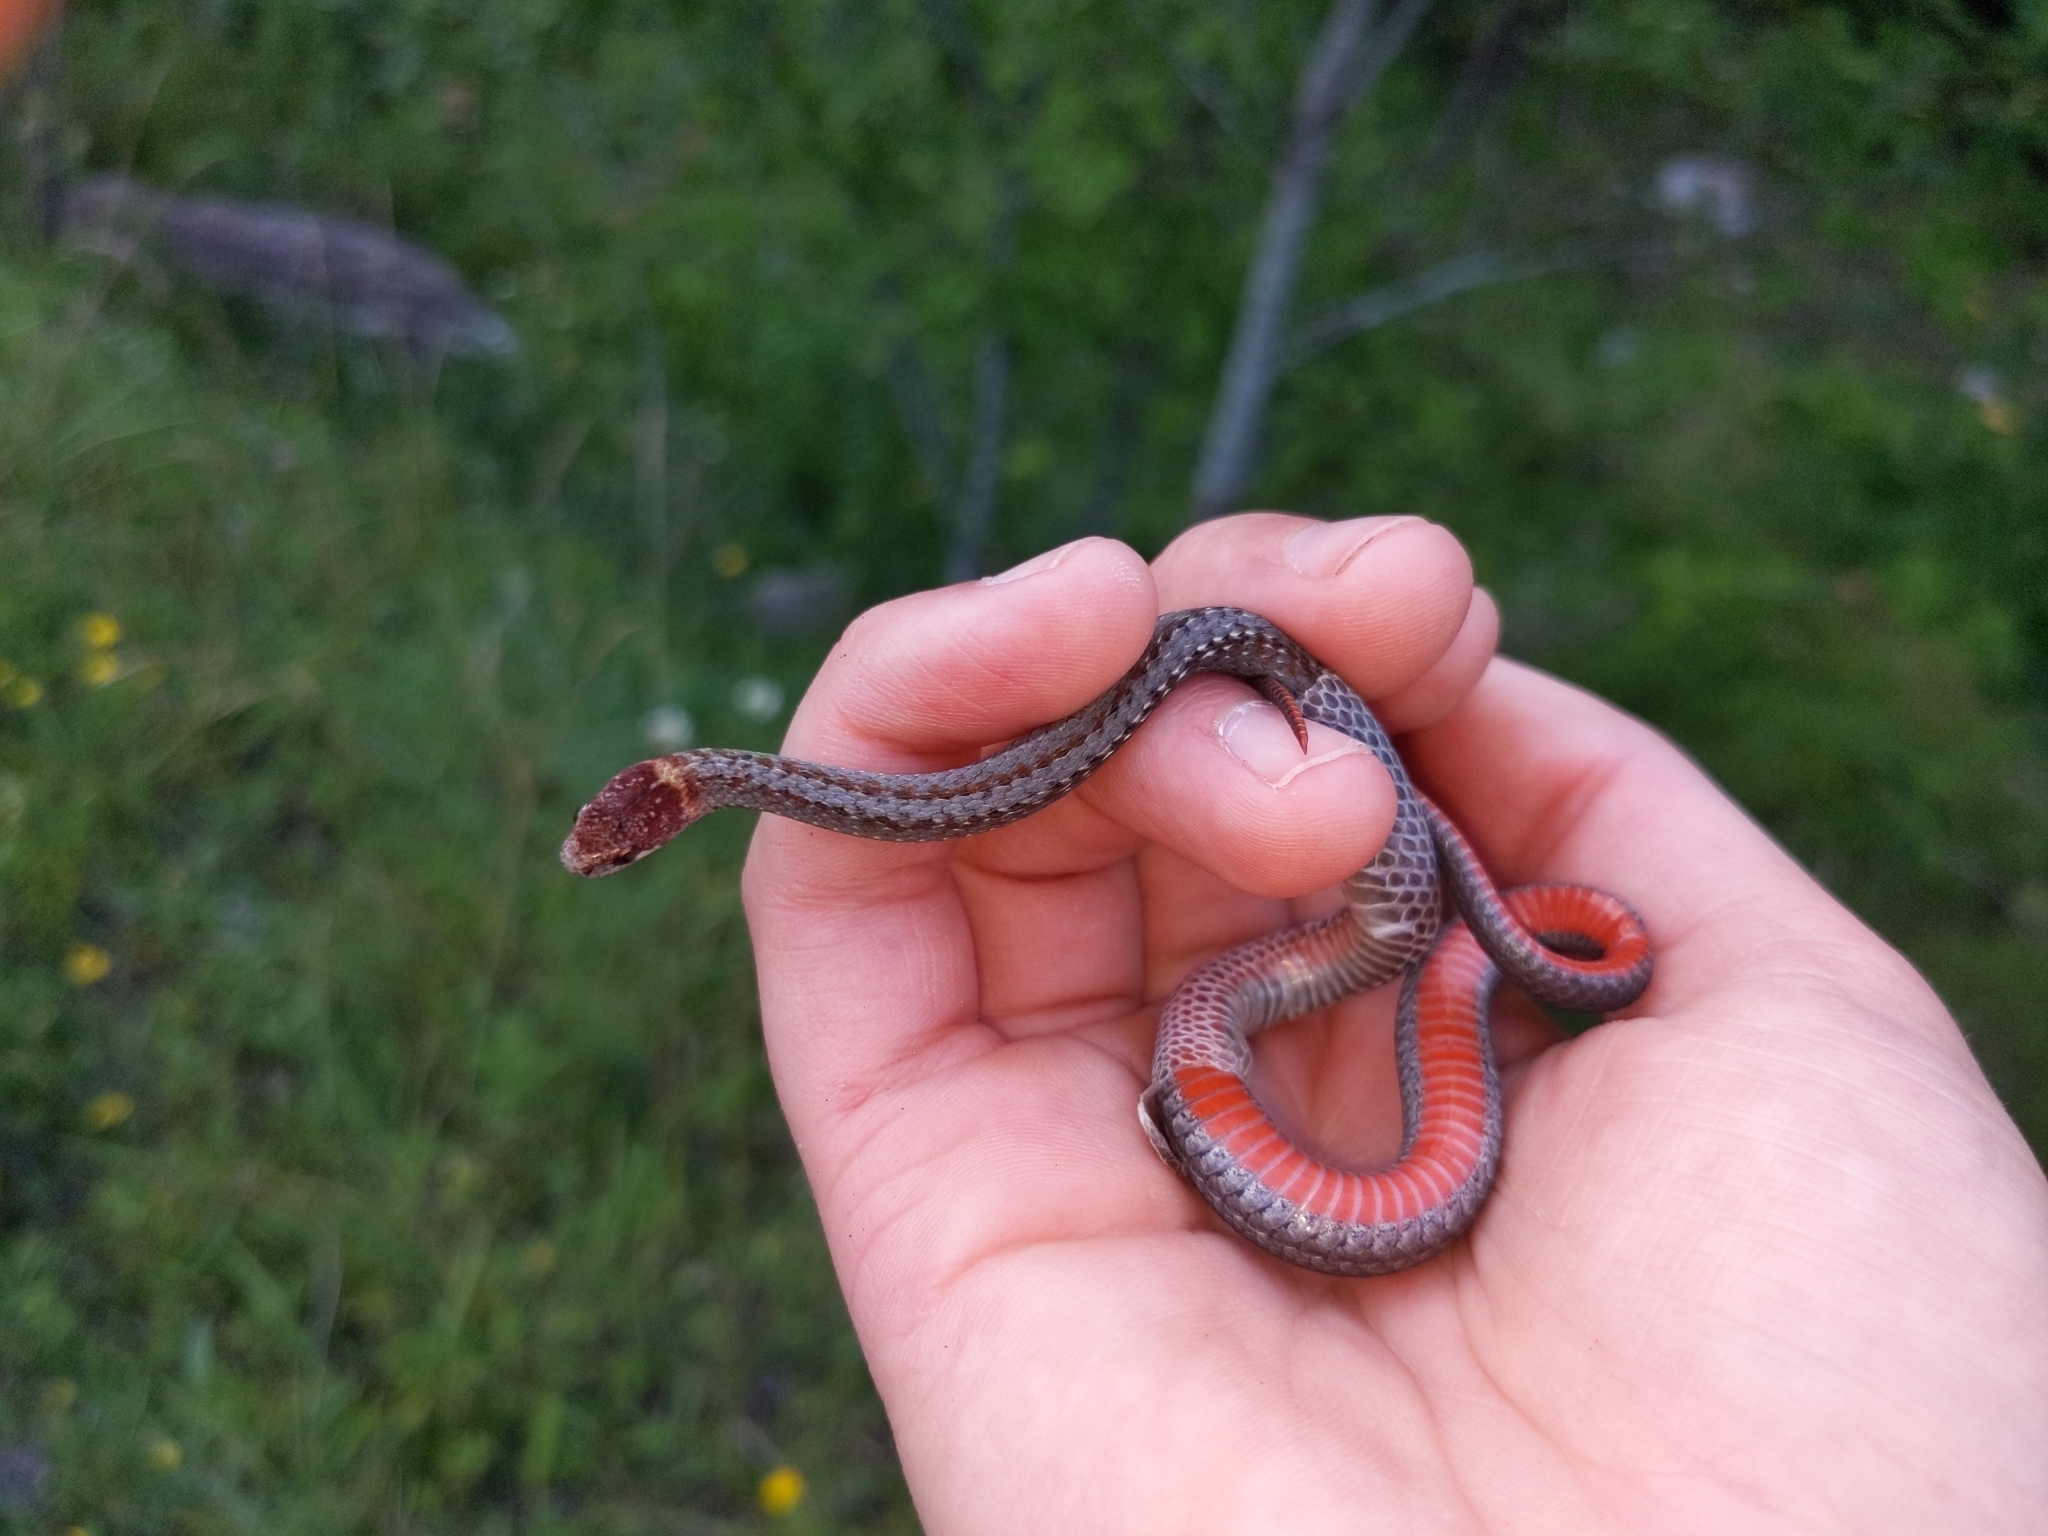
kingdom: Animalia
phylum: Chordata
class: Squamata
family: Colubridae
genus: Storeria
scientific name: Storeria occipitomaculata
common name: Redbelly snake
